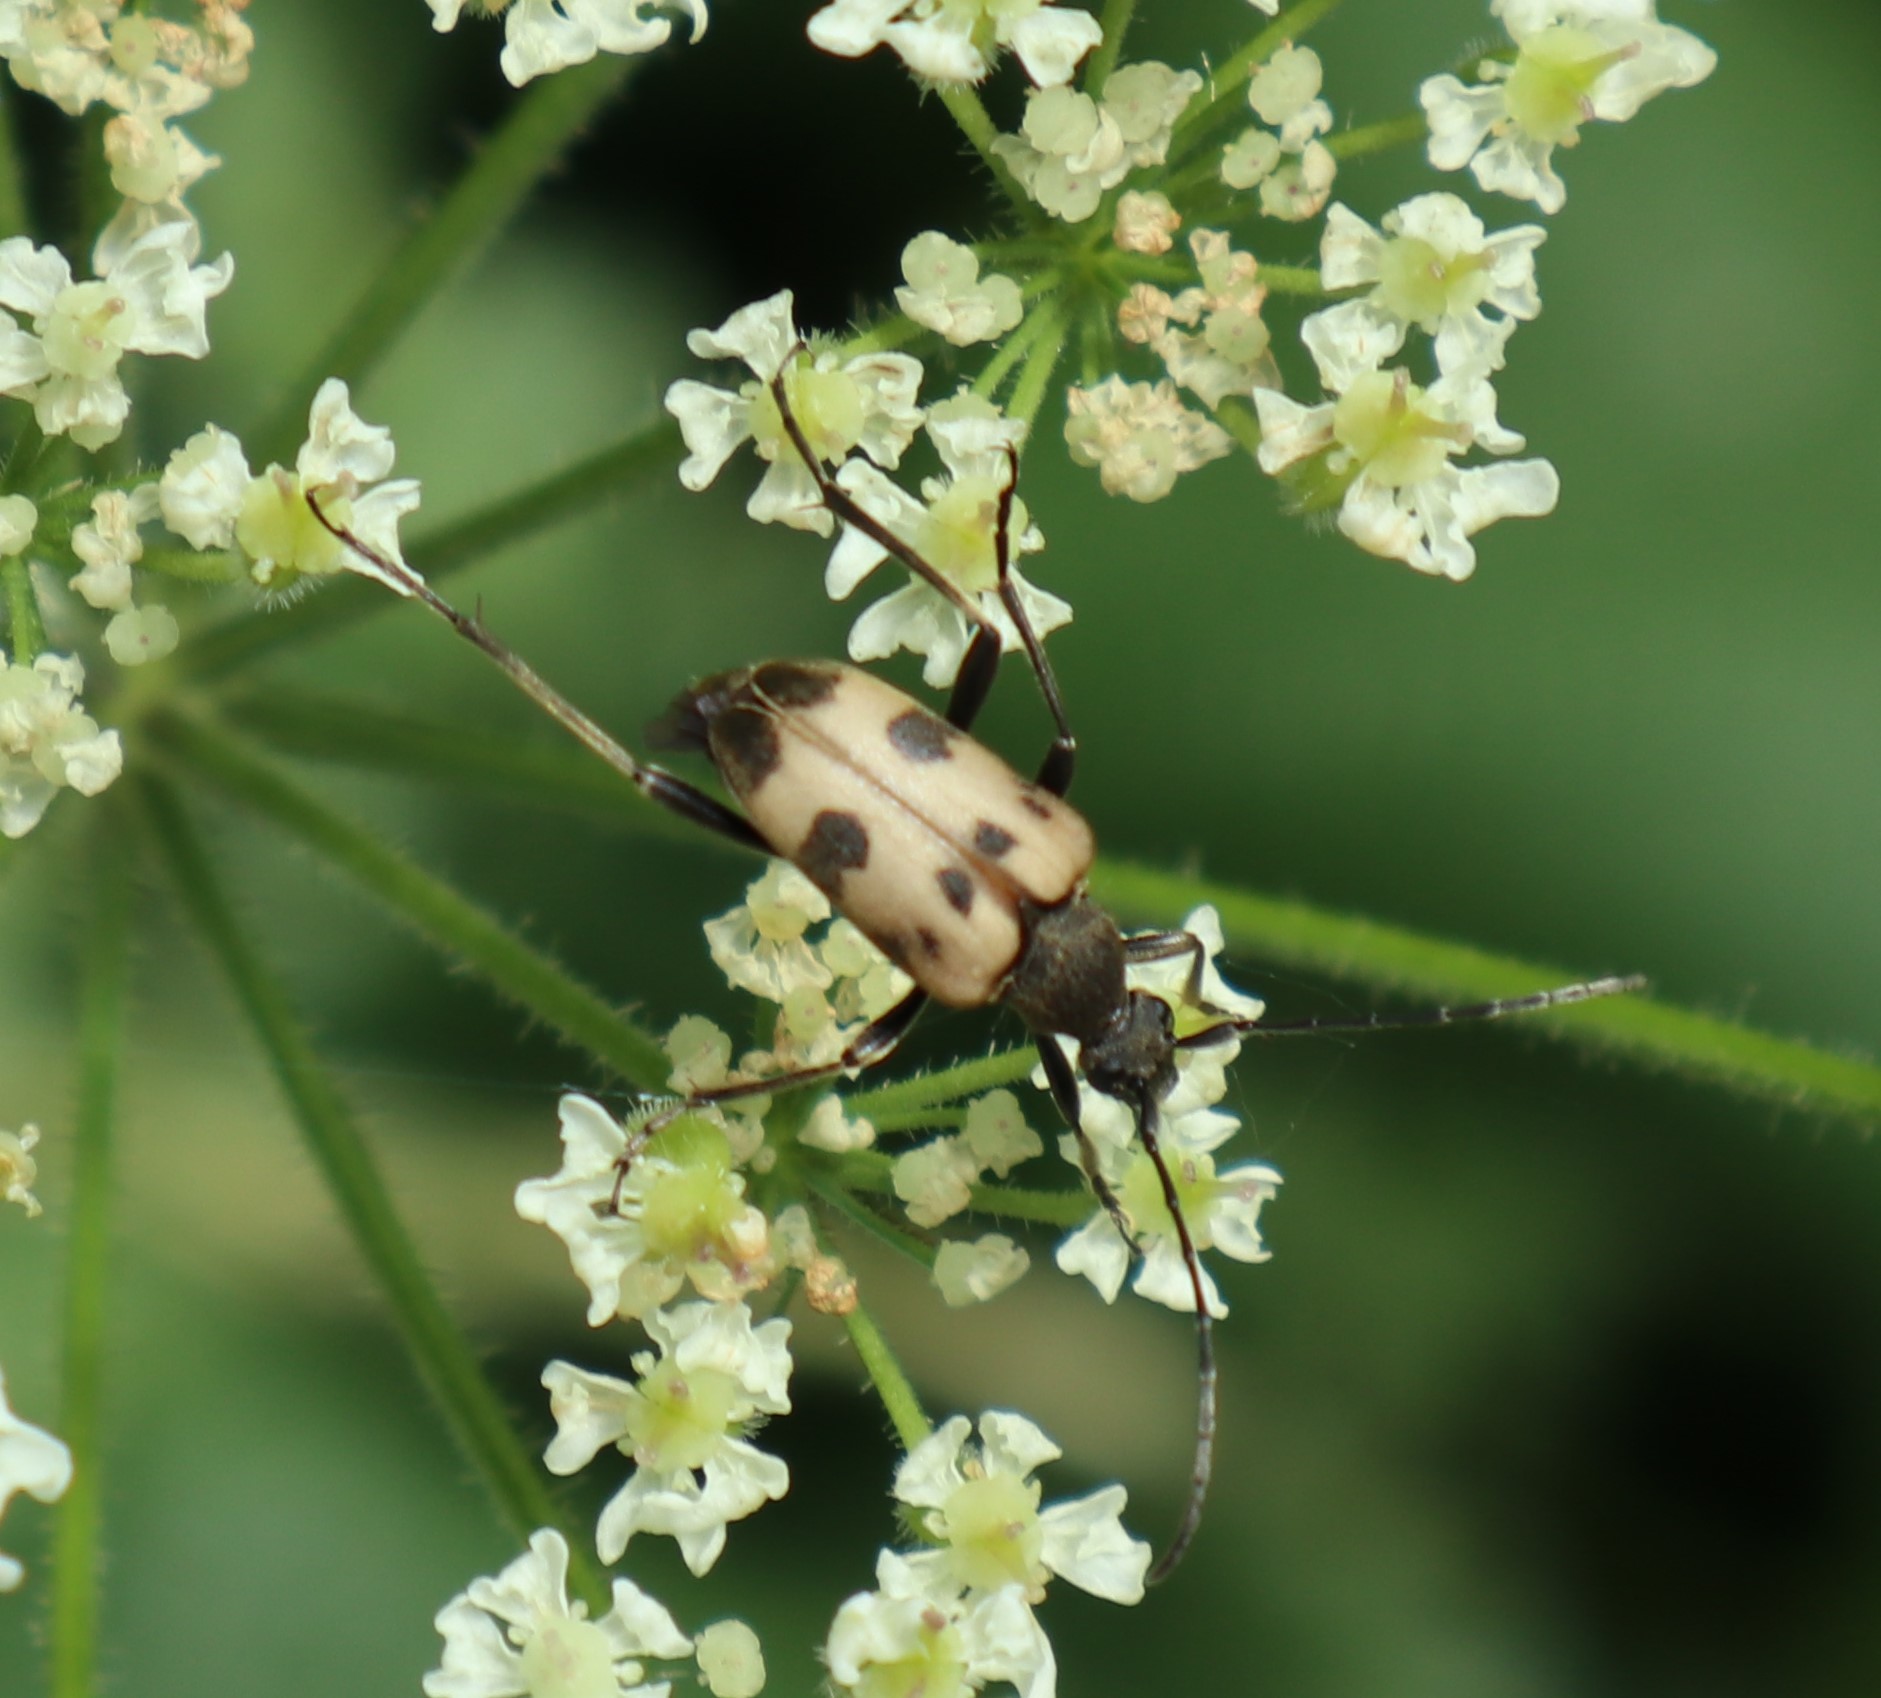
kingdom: Animalia
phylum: Arthropoda
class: Insecta
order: Coleoptera
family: Cerambycidae
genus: Pachytodes
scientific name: Pachytodes cerambyciformis
